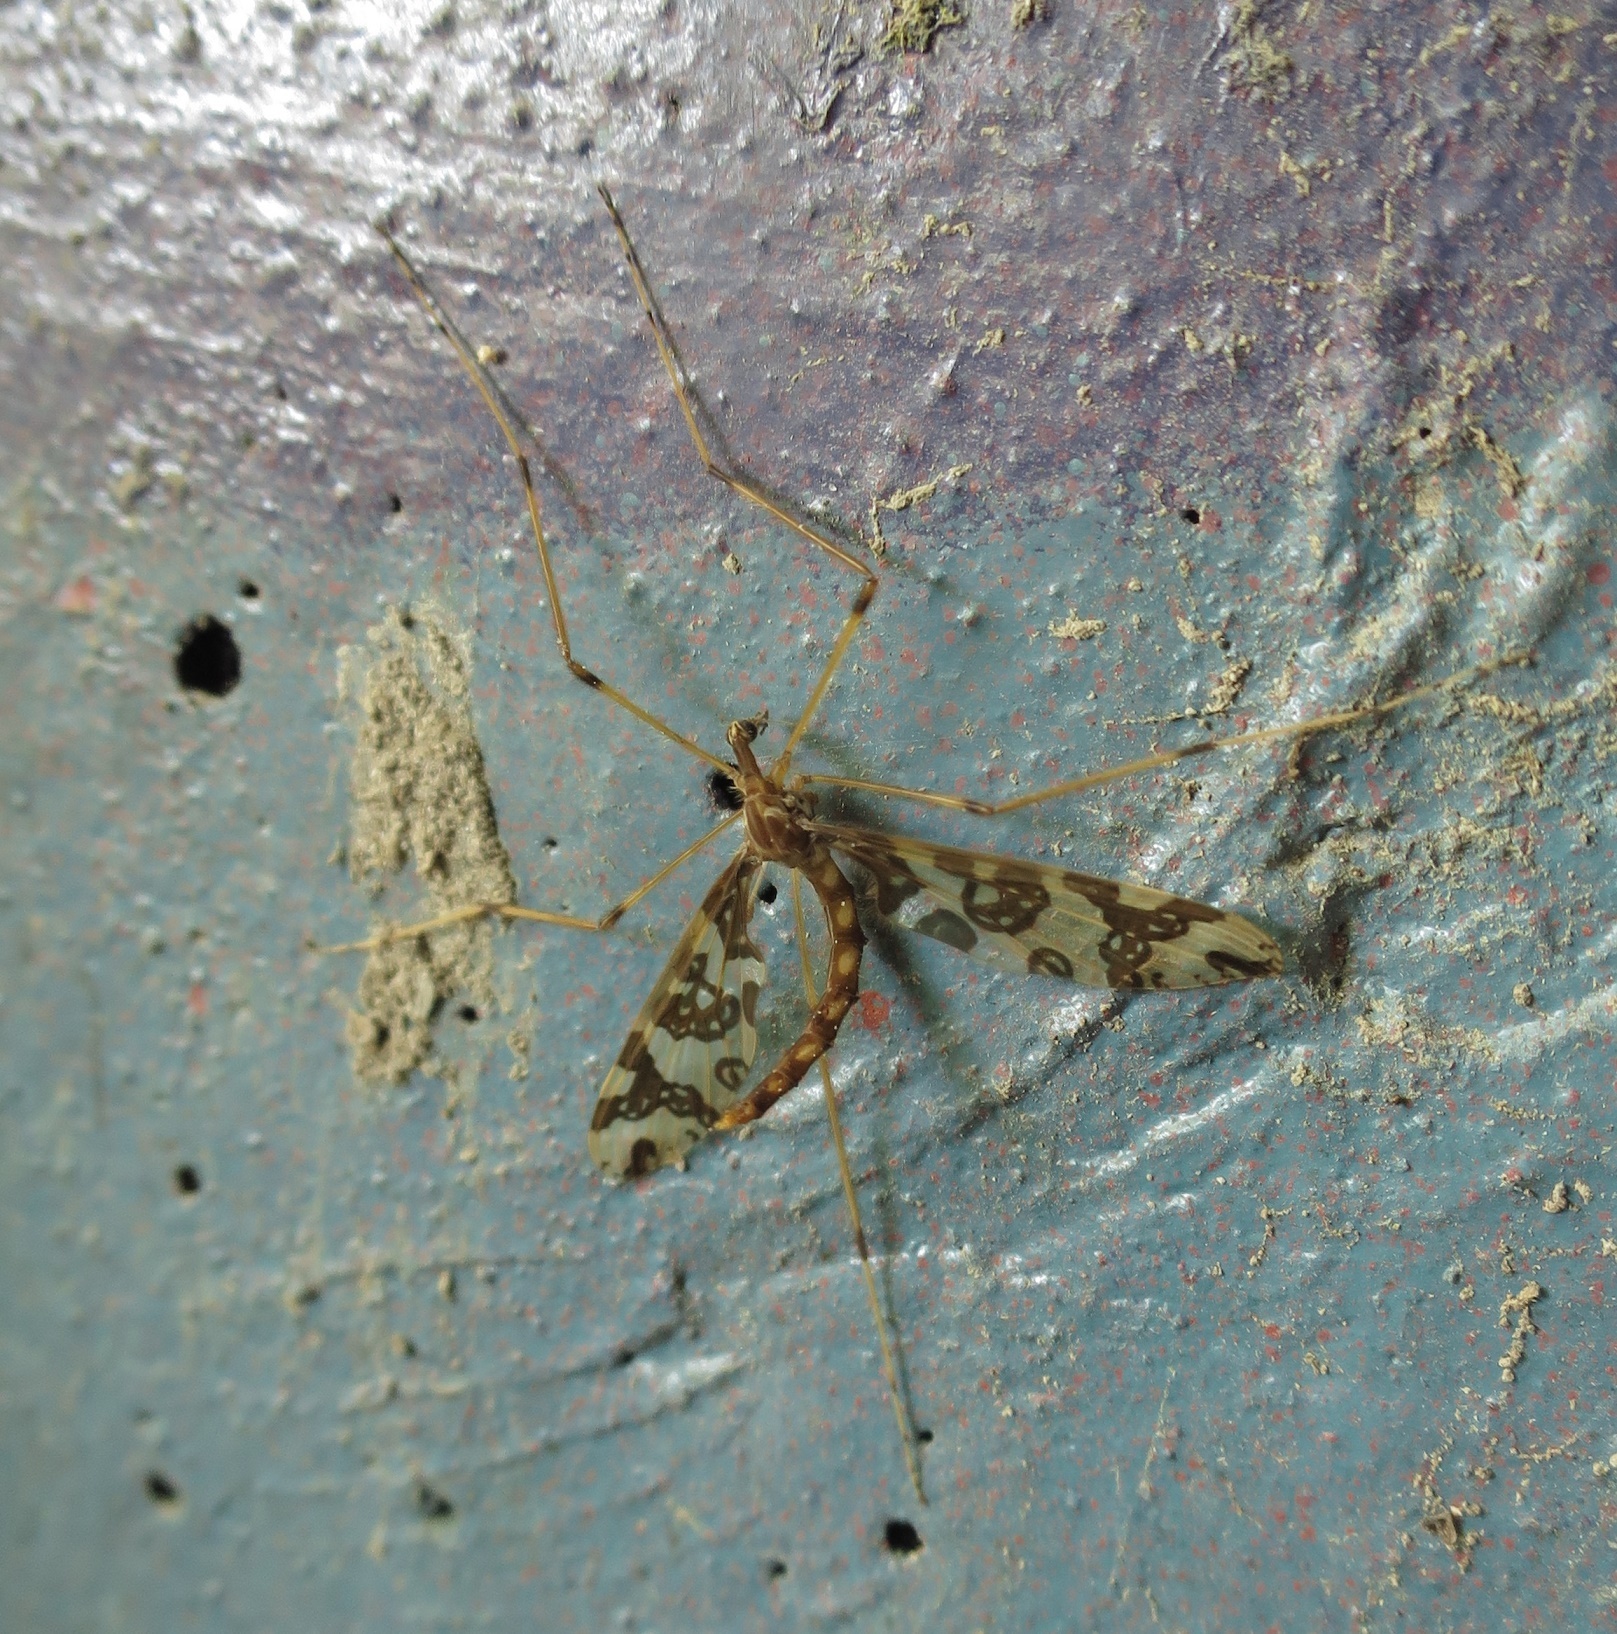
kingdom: Animalia
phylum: Arthropoda
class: Insecta
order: Diptera
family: Tanyderidae
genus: Tanyderus
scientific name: Tanyderus annuliferus
